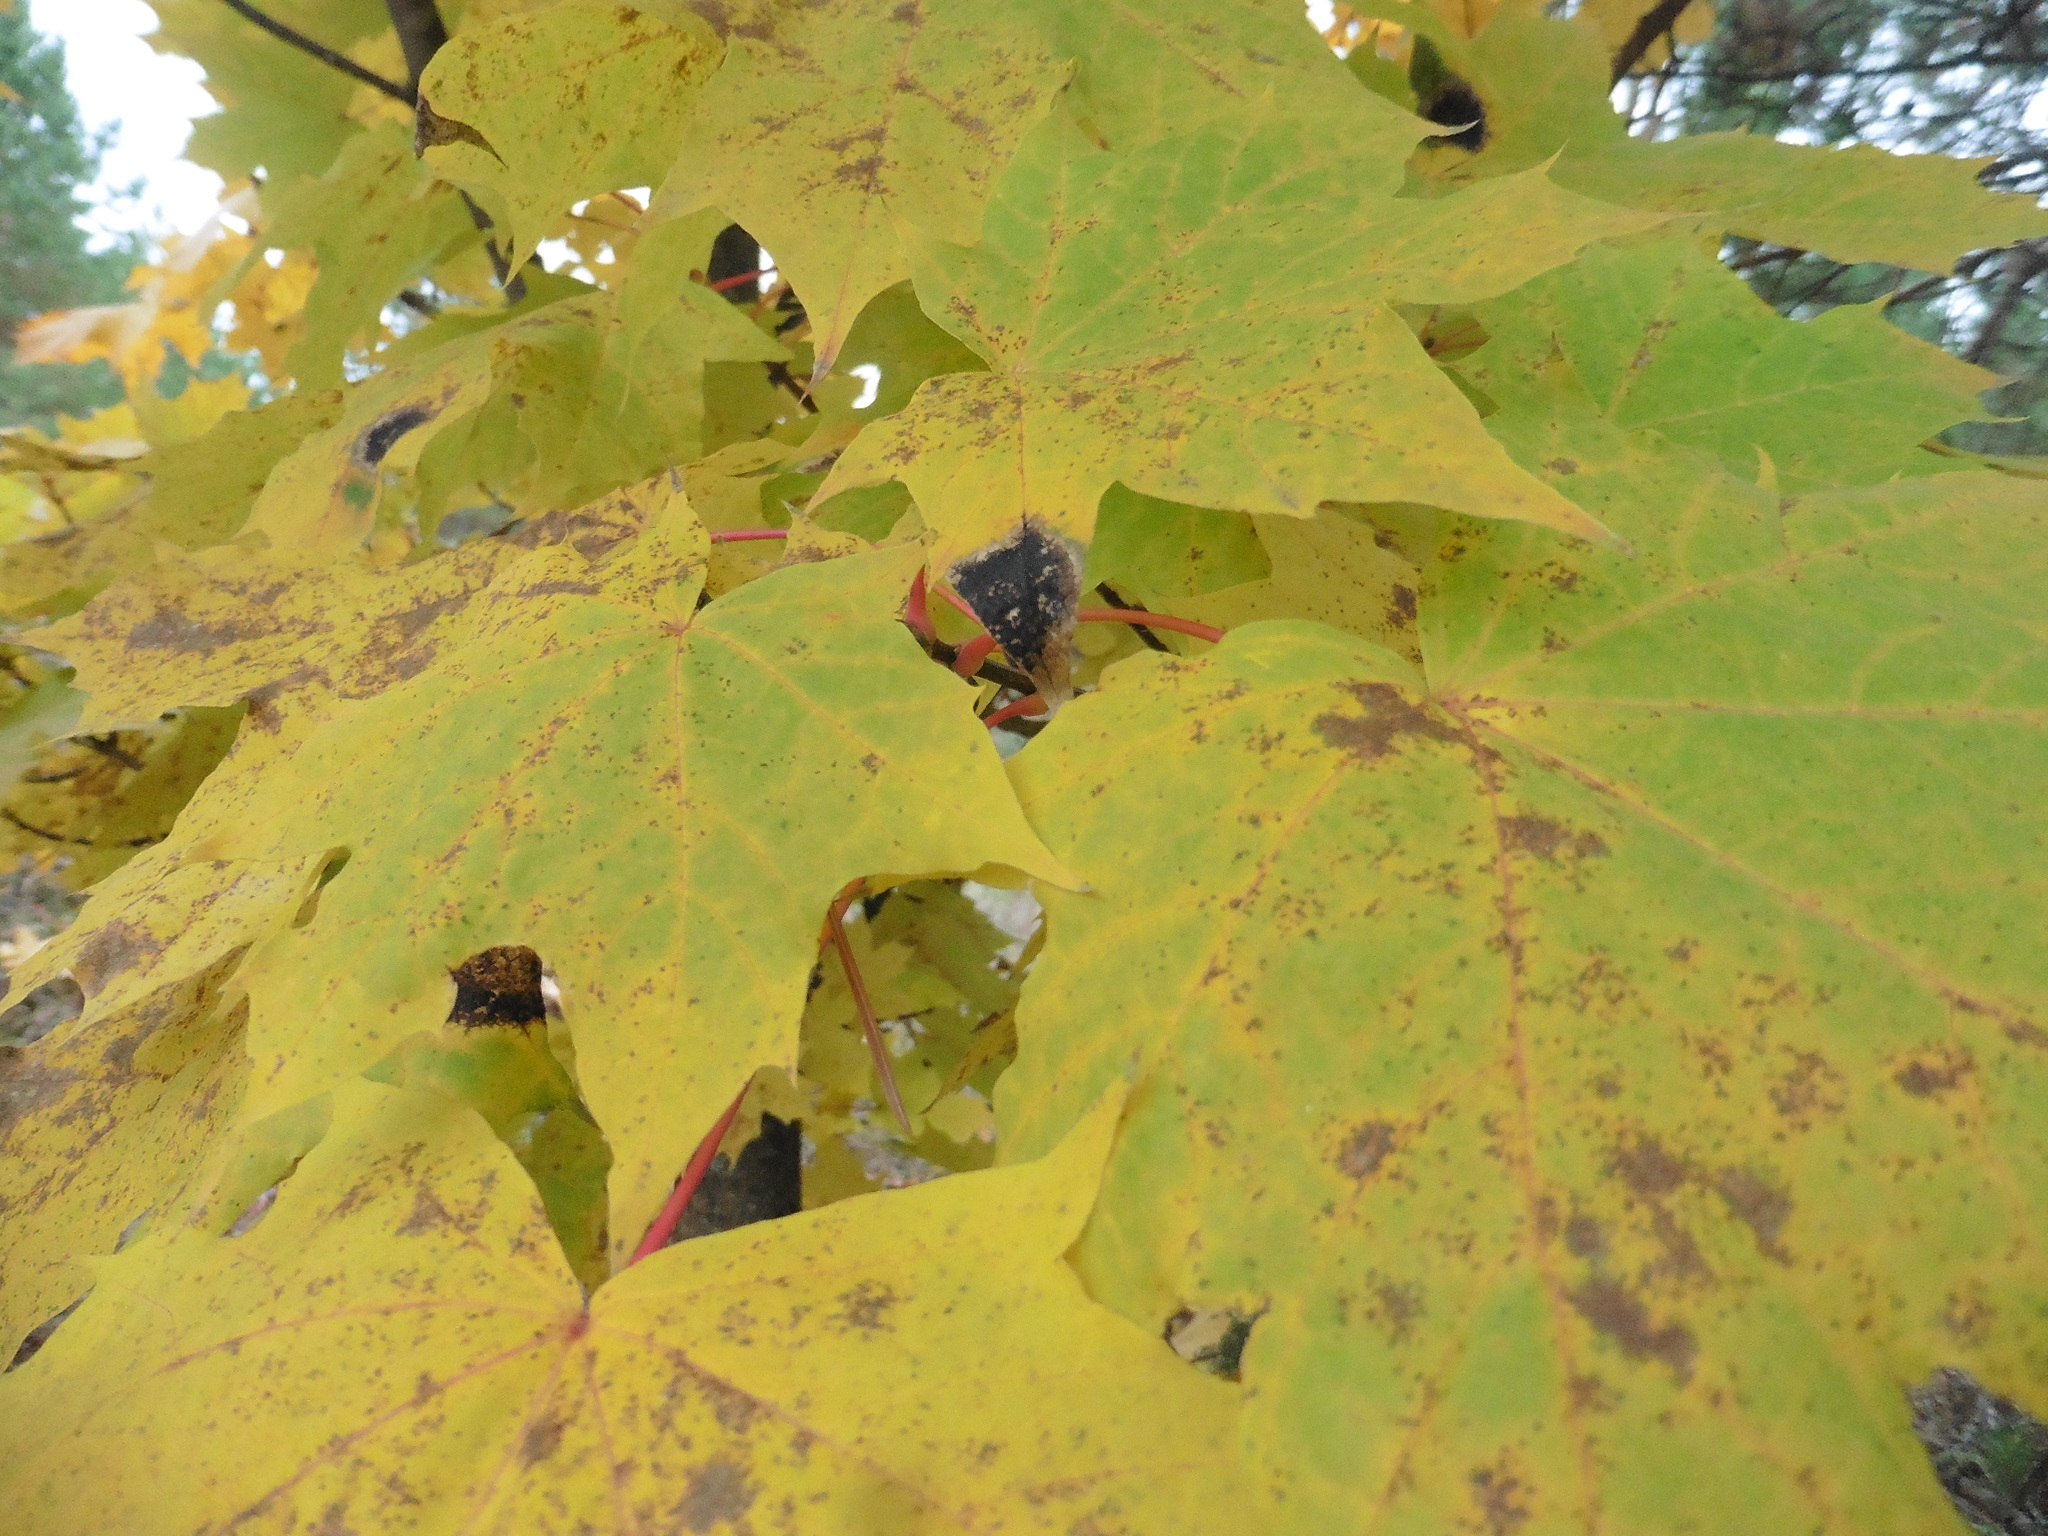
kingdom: Plantae
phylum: Tracheophyta
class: Magnoliopsida
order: Sapindales
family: Sapindaceae
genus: Acer
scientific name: Acer platanoides
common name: Norway maple
